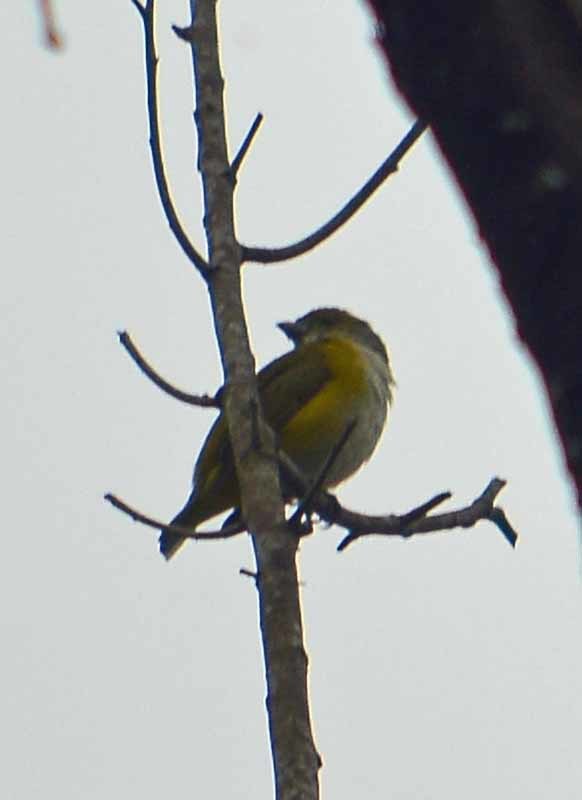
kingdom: Animalia
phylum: Chordata
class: Aves
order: Passeriformes
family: Fringillidae
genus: Euphonia
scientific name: Euphonia hirundinacea
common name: Yellow-throated euphonia
